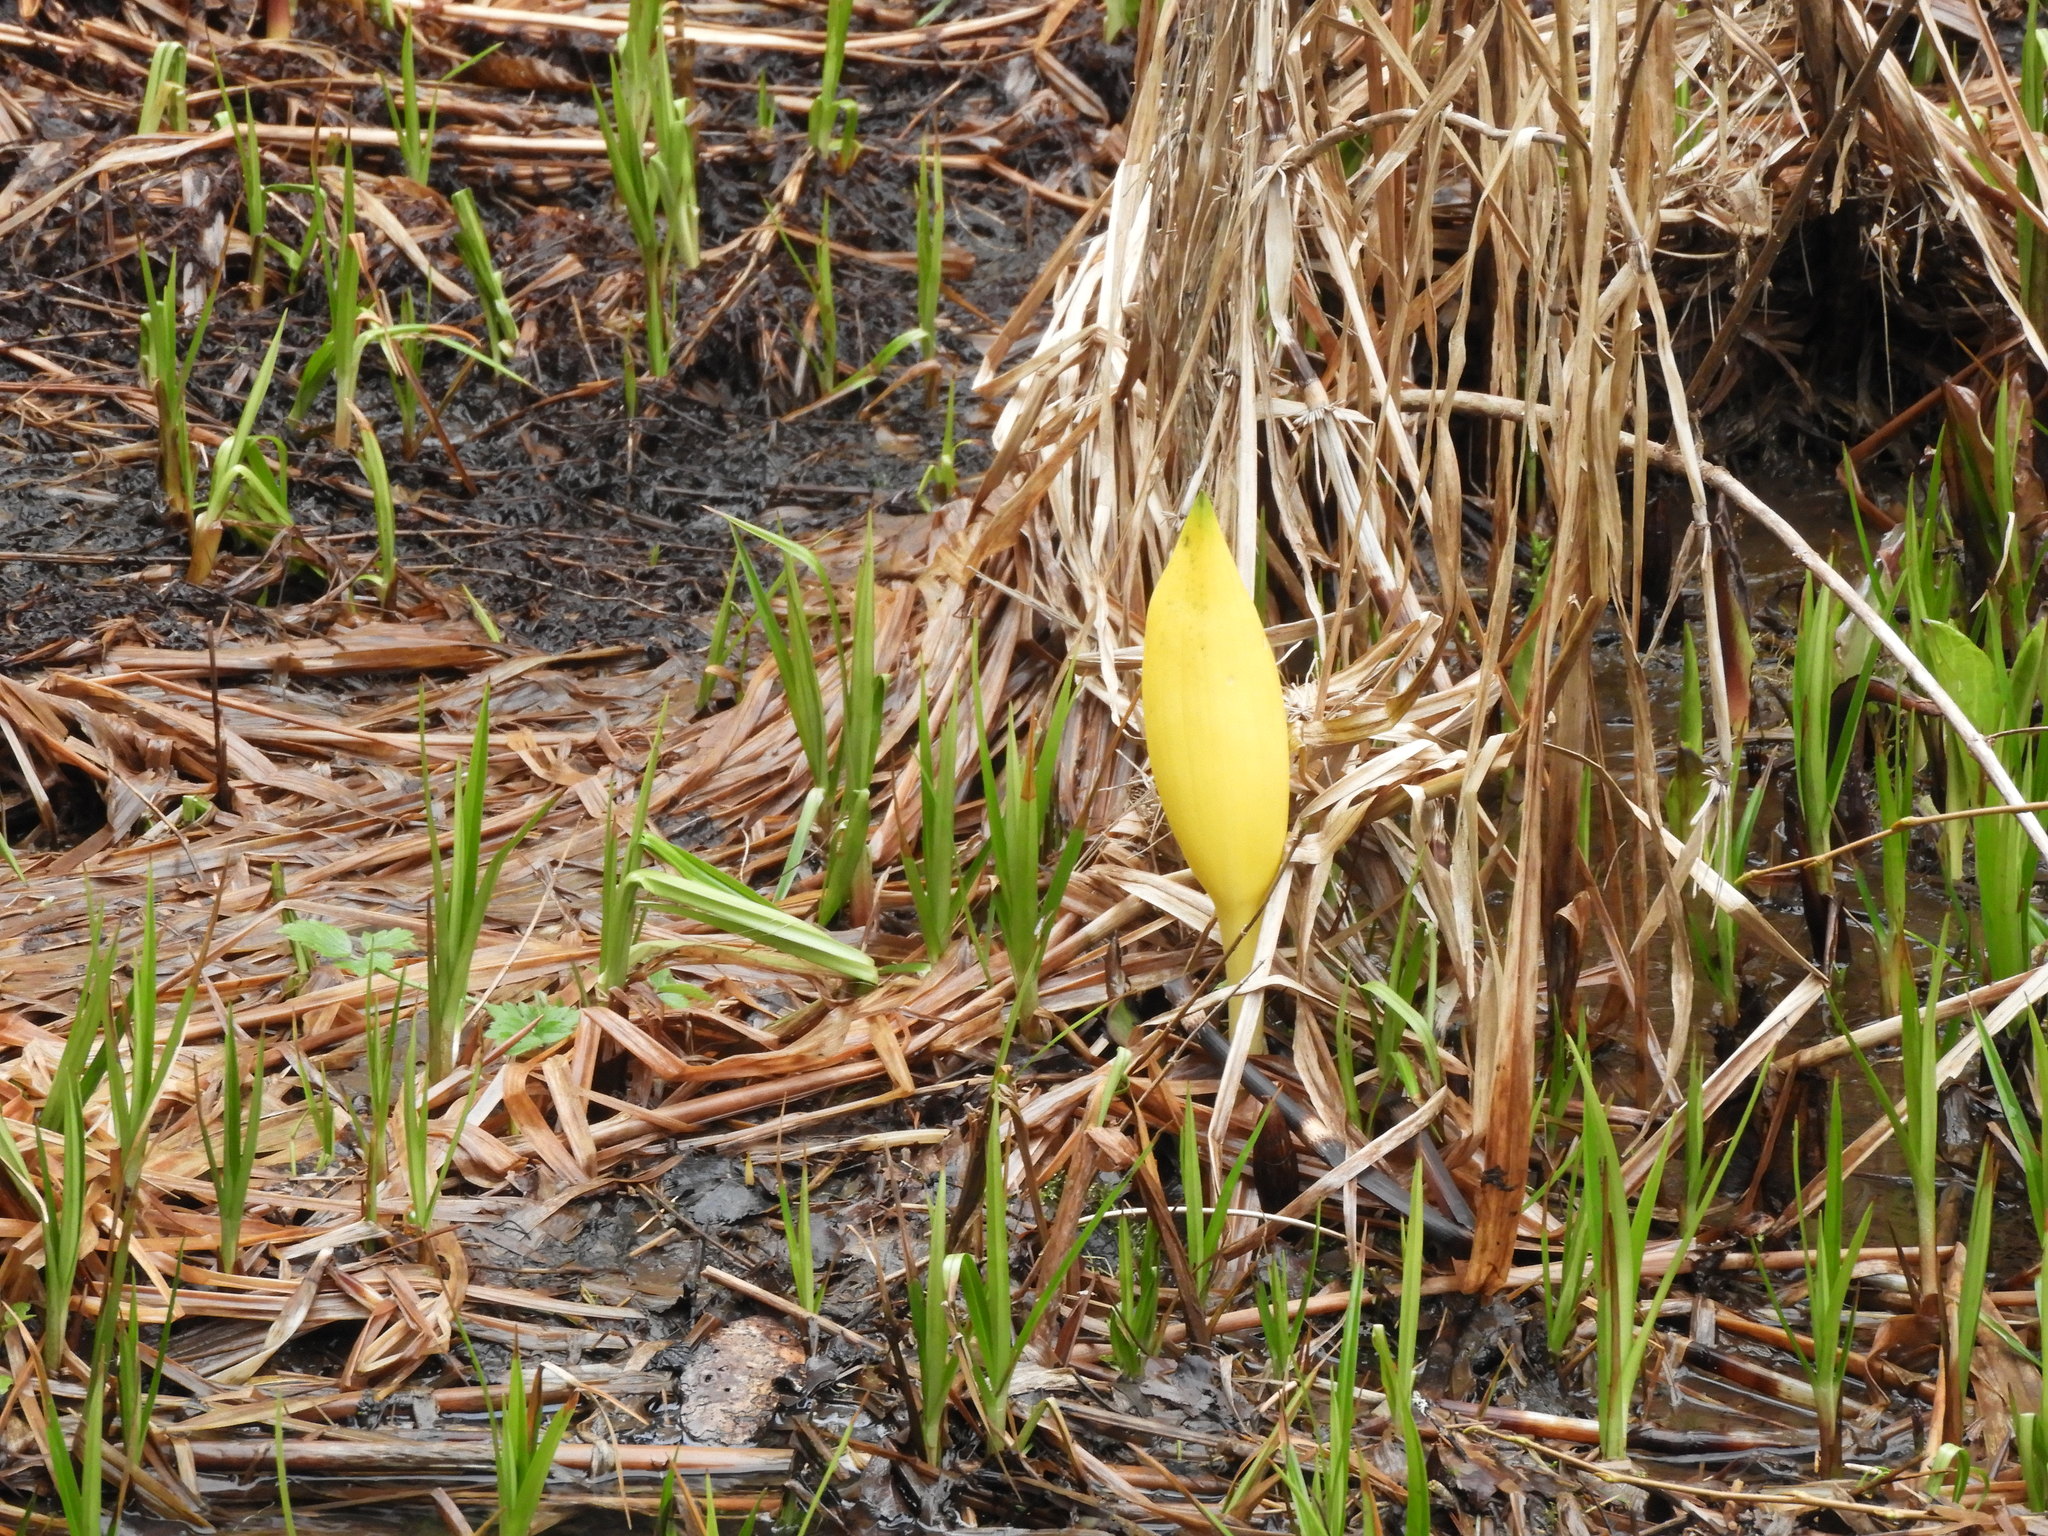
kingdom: Plantae
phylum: Tracheophyta
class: Liliopsida
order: Alismatales
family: Araceae
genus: Lysichiton
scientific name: Lysichiton americanus
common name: American skunk cabbage
